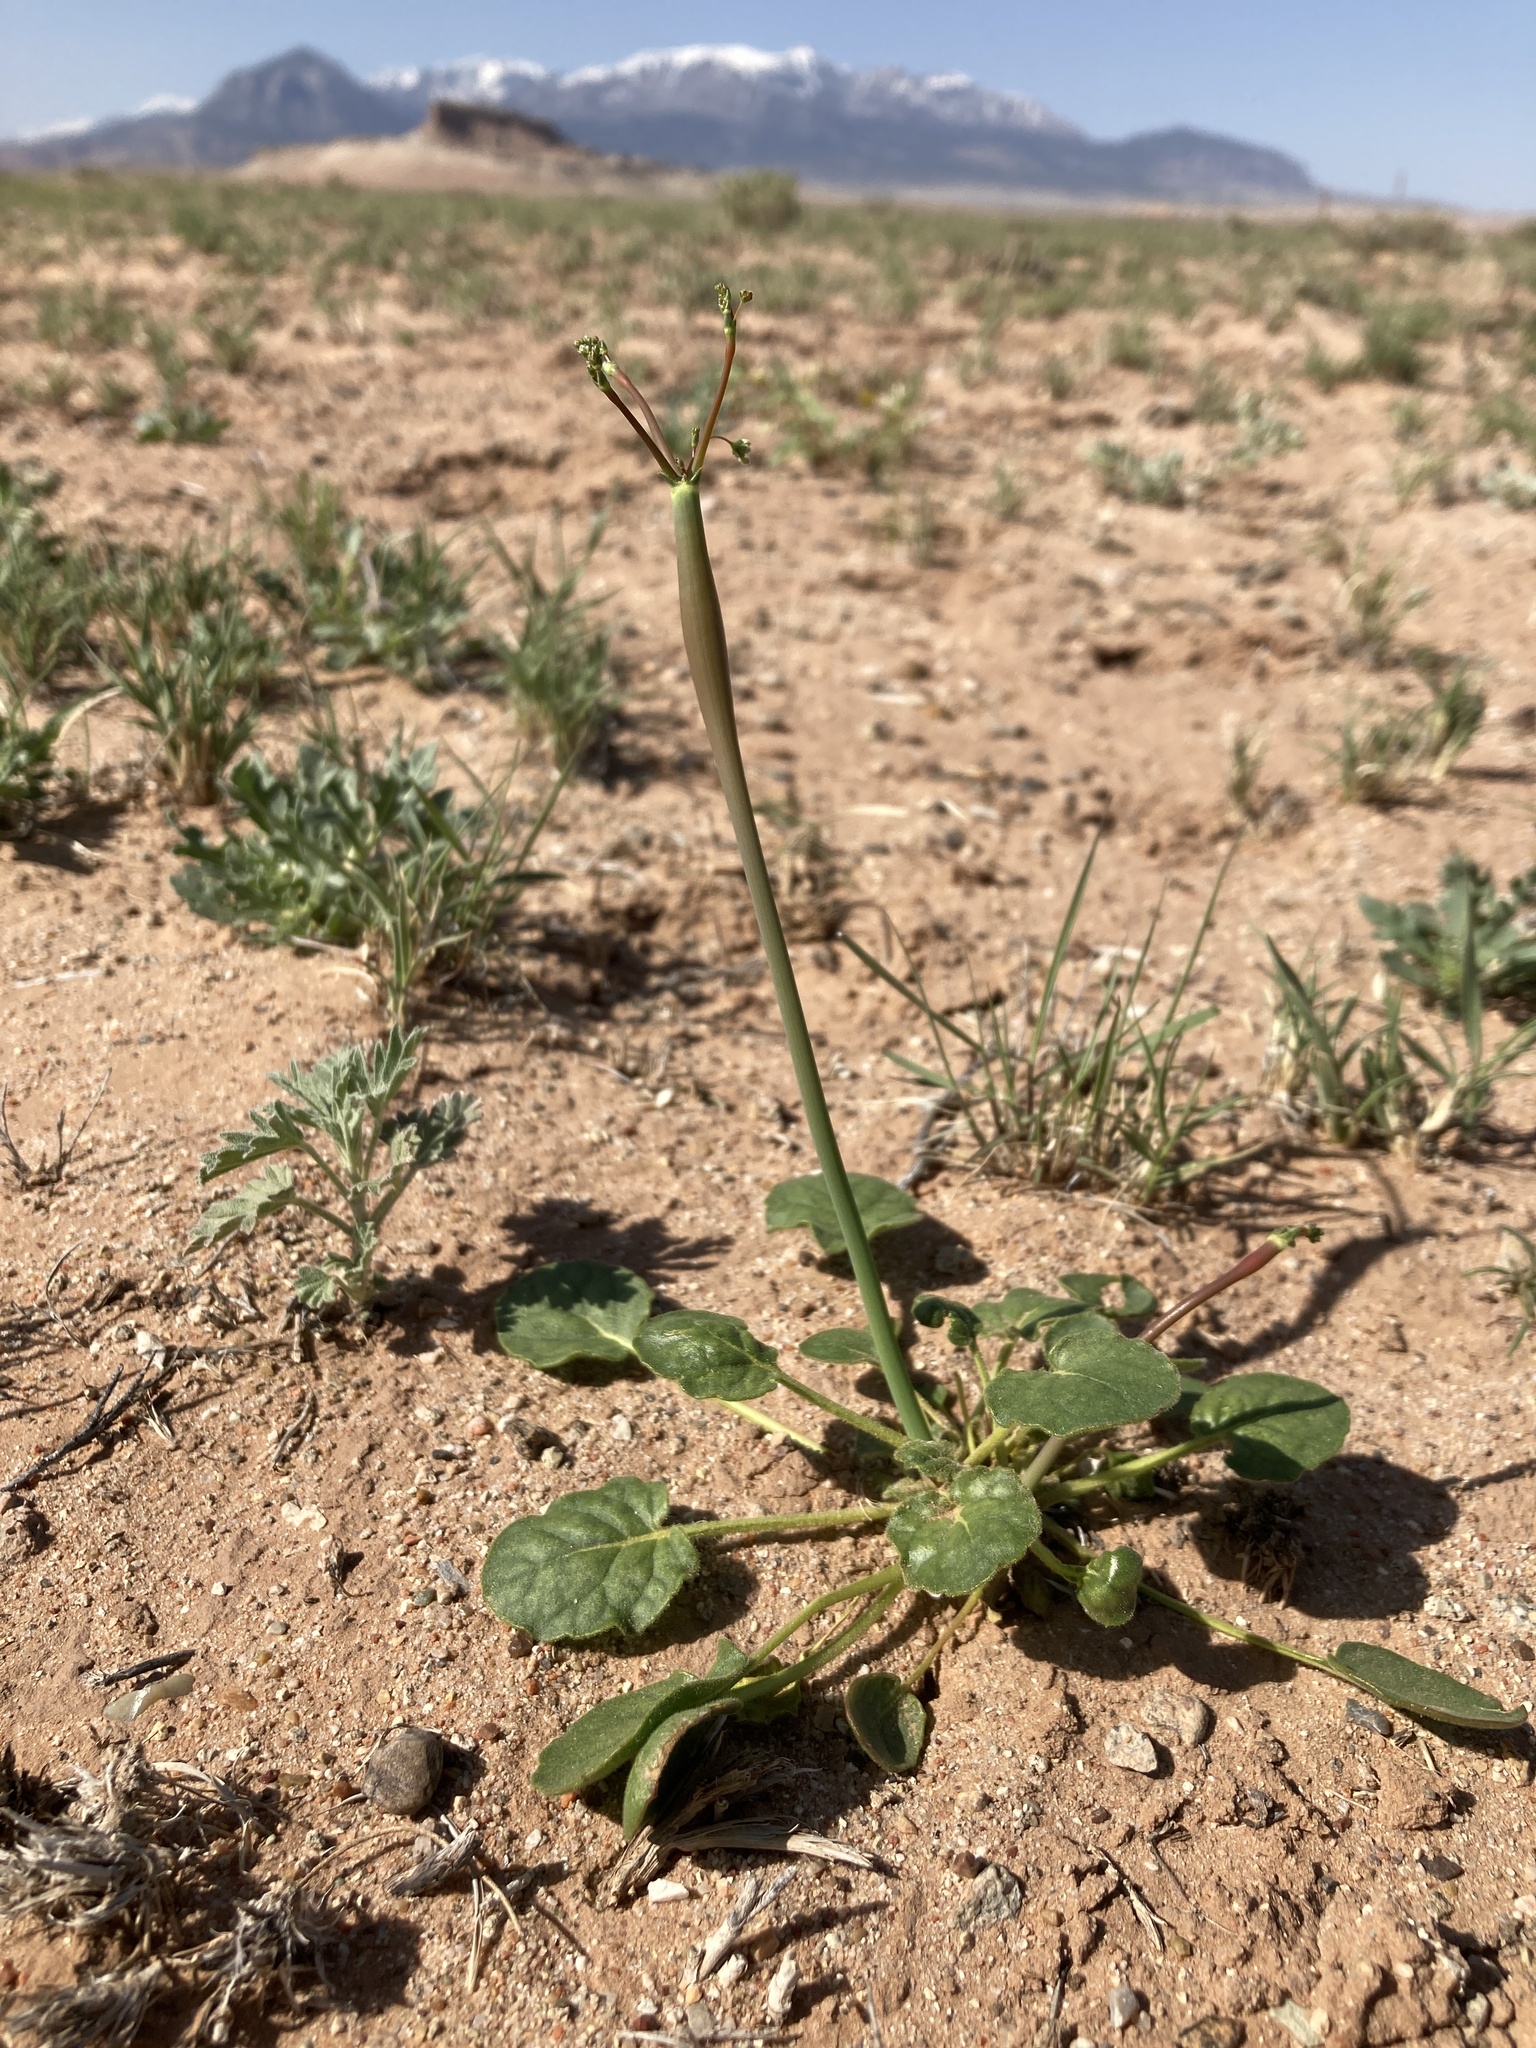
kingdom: Plantae
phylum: Tracheophyta
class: Magnoliopsida
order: Caryophyllales
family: Polygonaceae
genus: Eriogonum
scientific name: Eriogonum inflatum
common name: Desert trumpet
